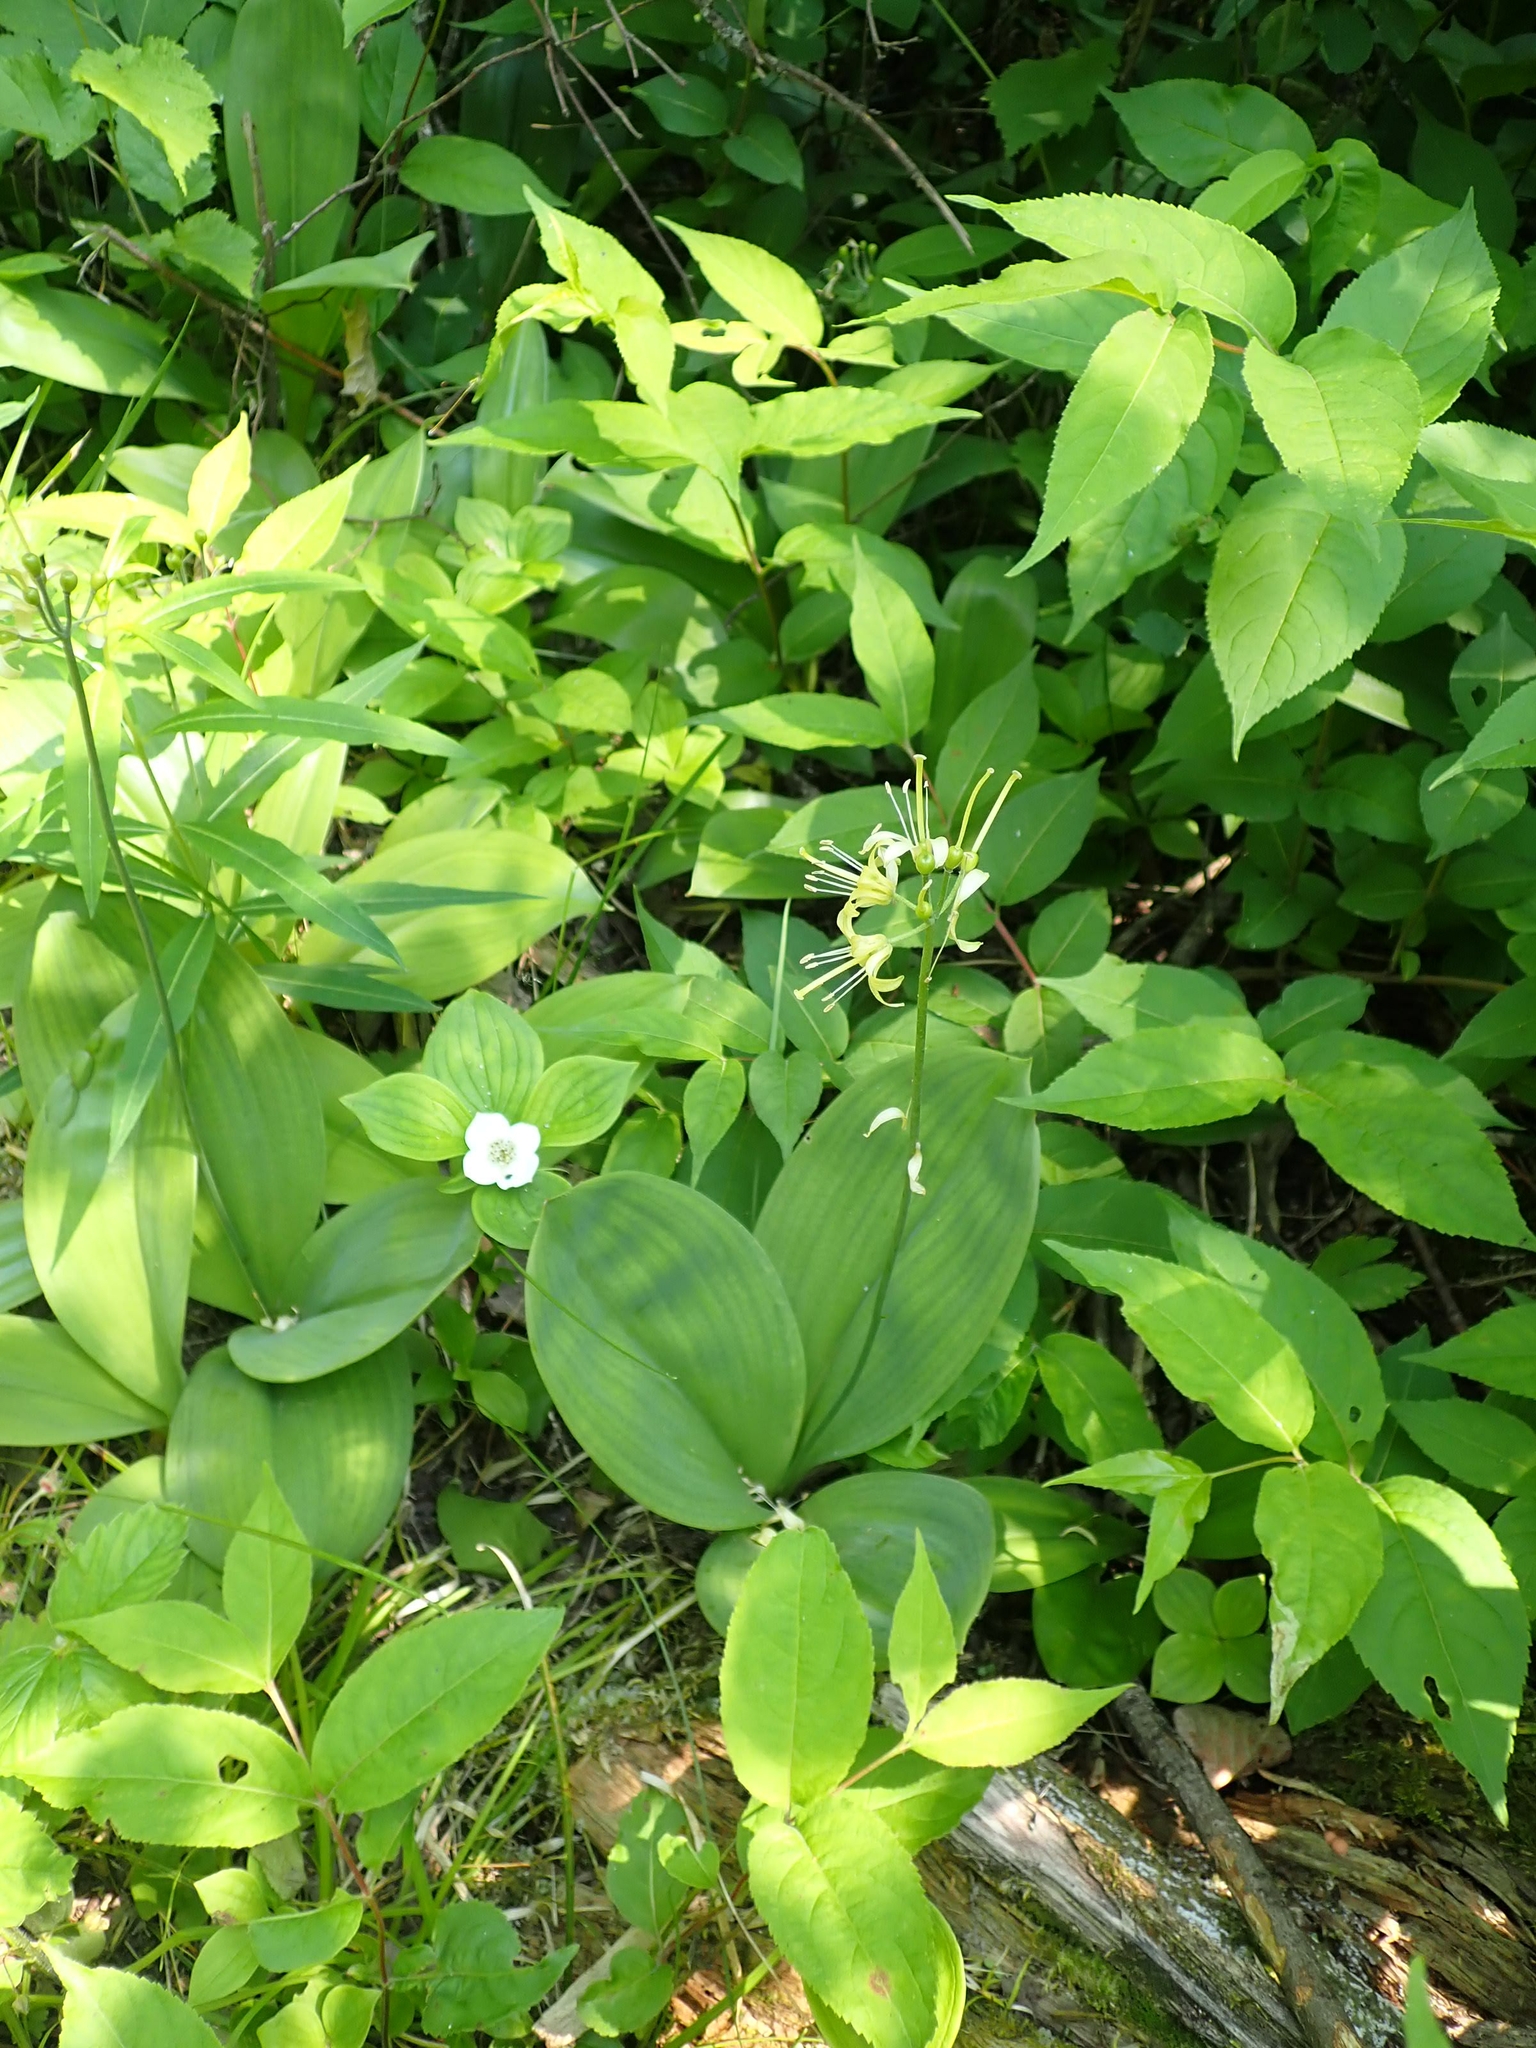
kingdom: Plantae
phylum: Tracheophyta
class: Liliopsida
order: Liliales
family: Liliaceae
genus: Clintonia
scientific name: Clintonia borealis
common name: Yellow clintonia
